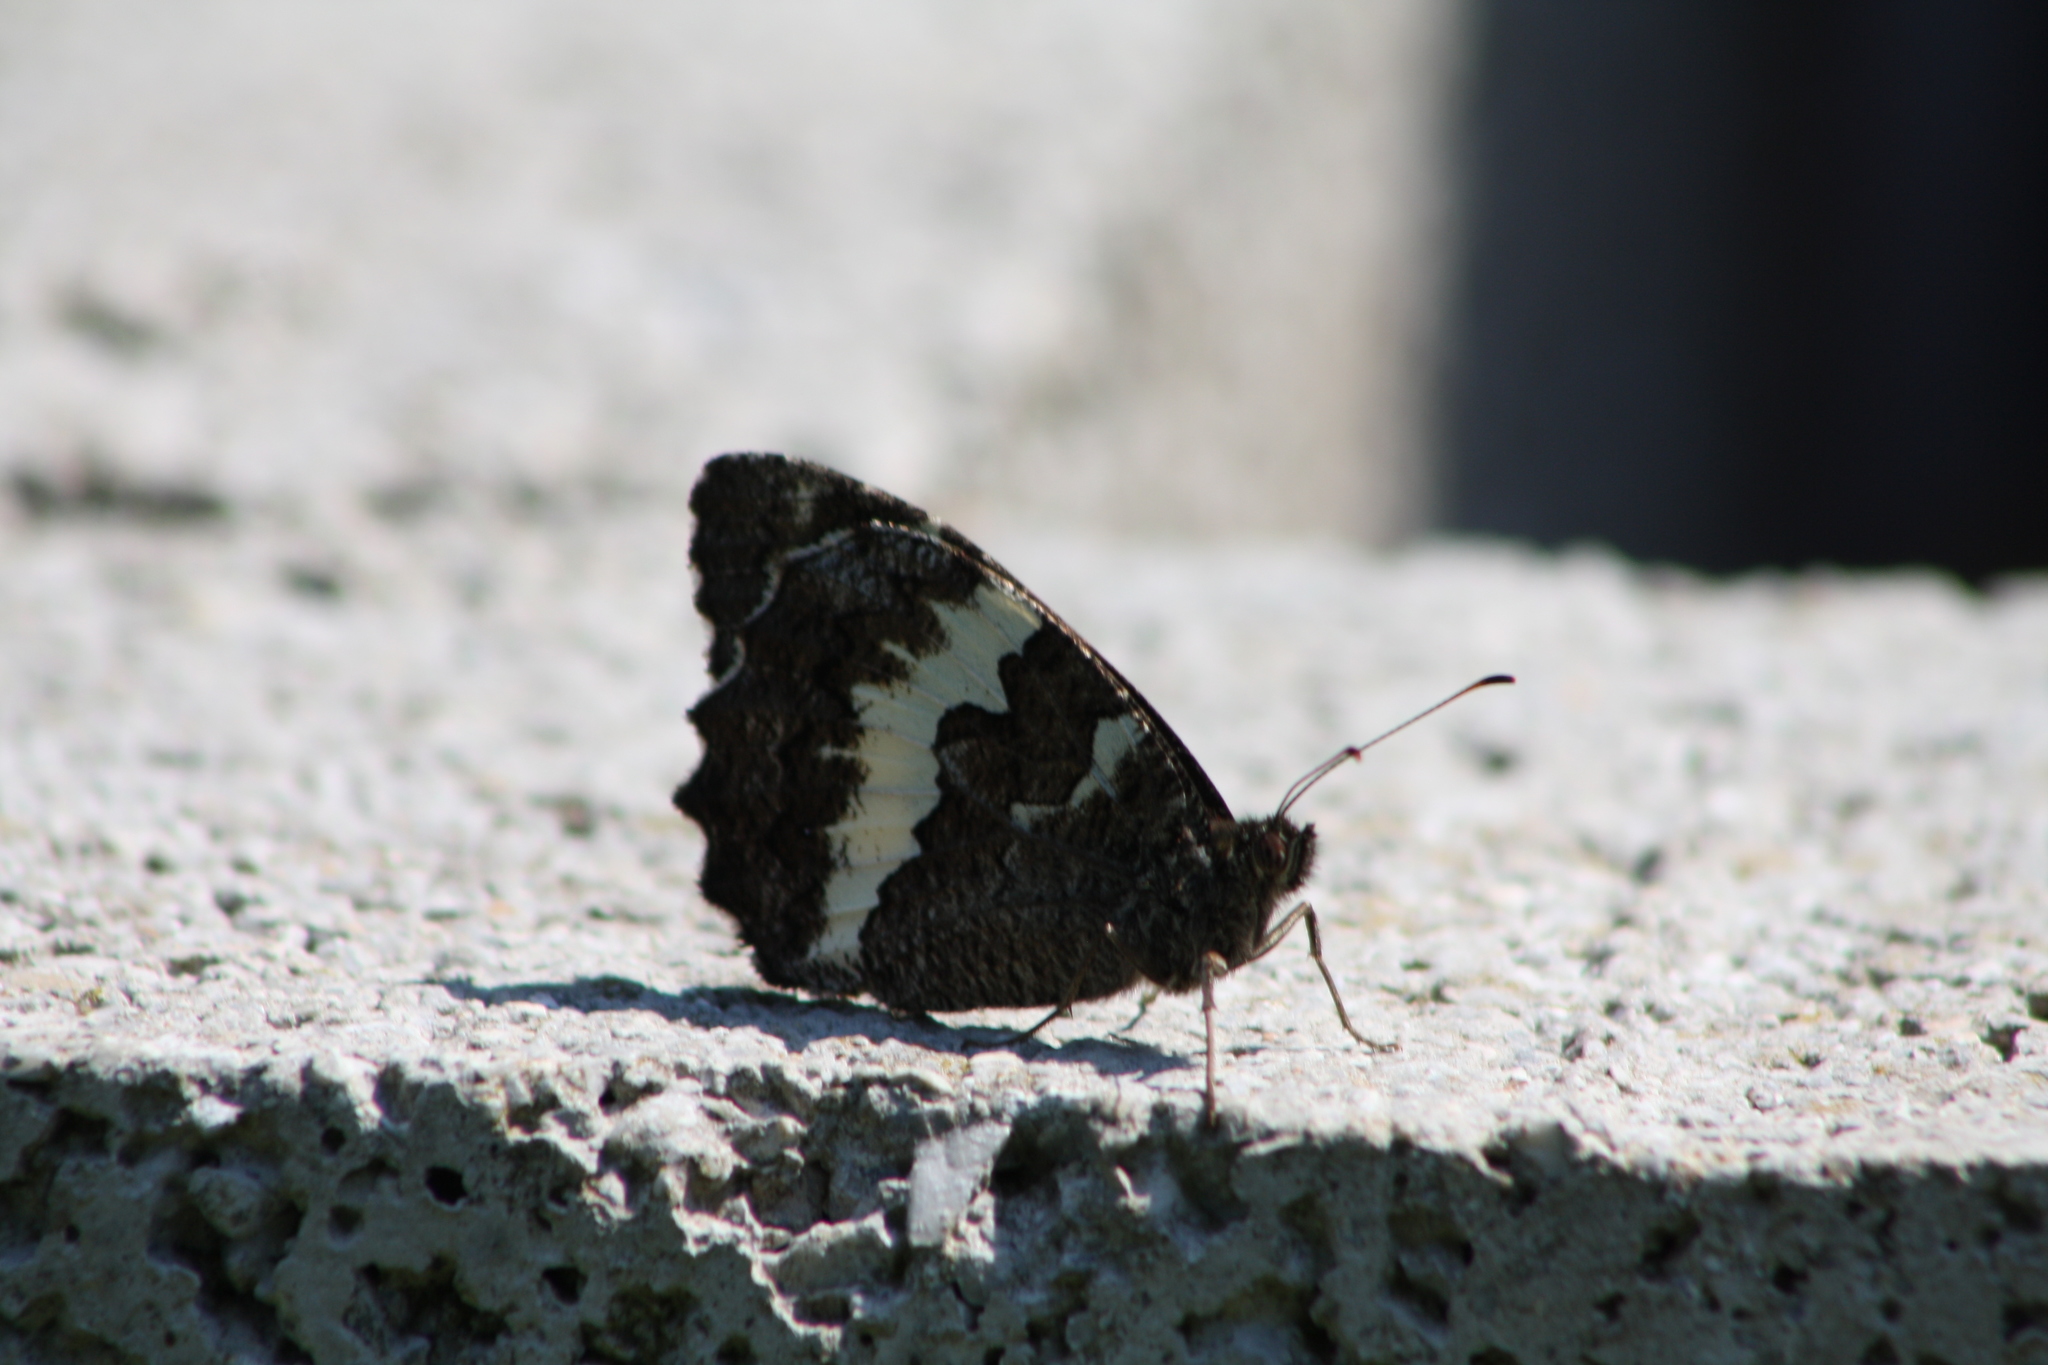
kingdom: Animalia
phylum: Arthropoda
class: Insecta
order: Lepidoptera
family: Lycaenidae
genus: Loweia
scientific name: Loweia tityrus
